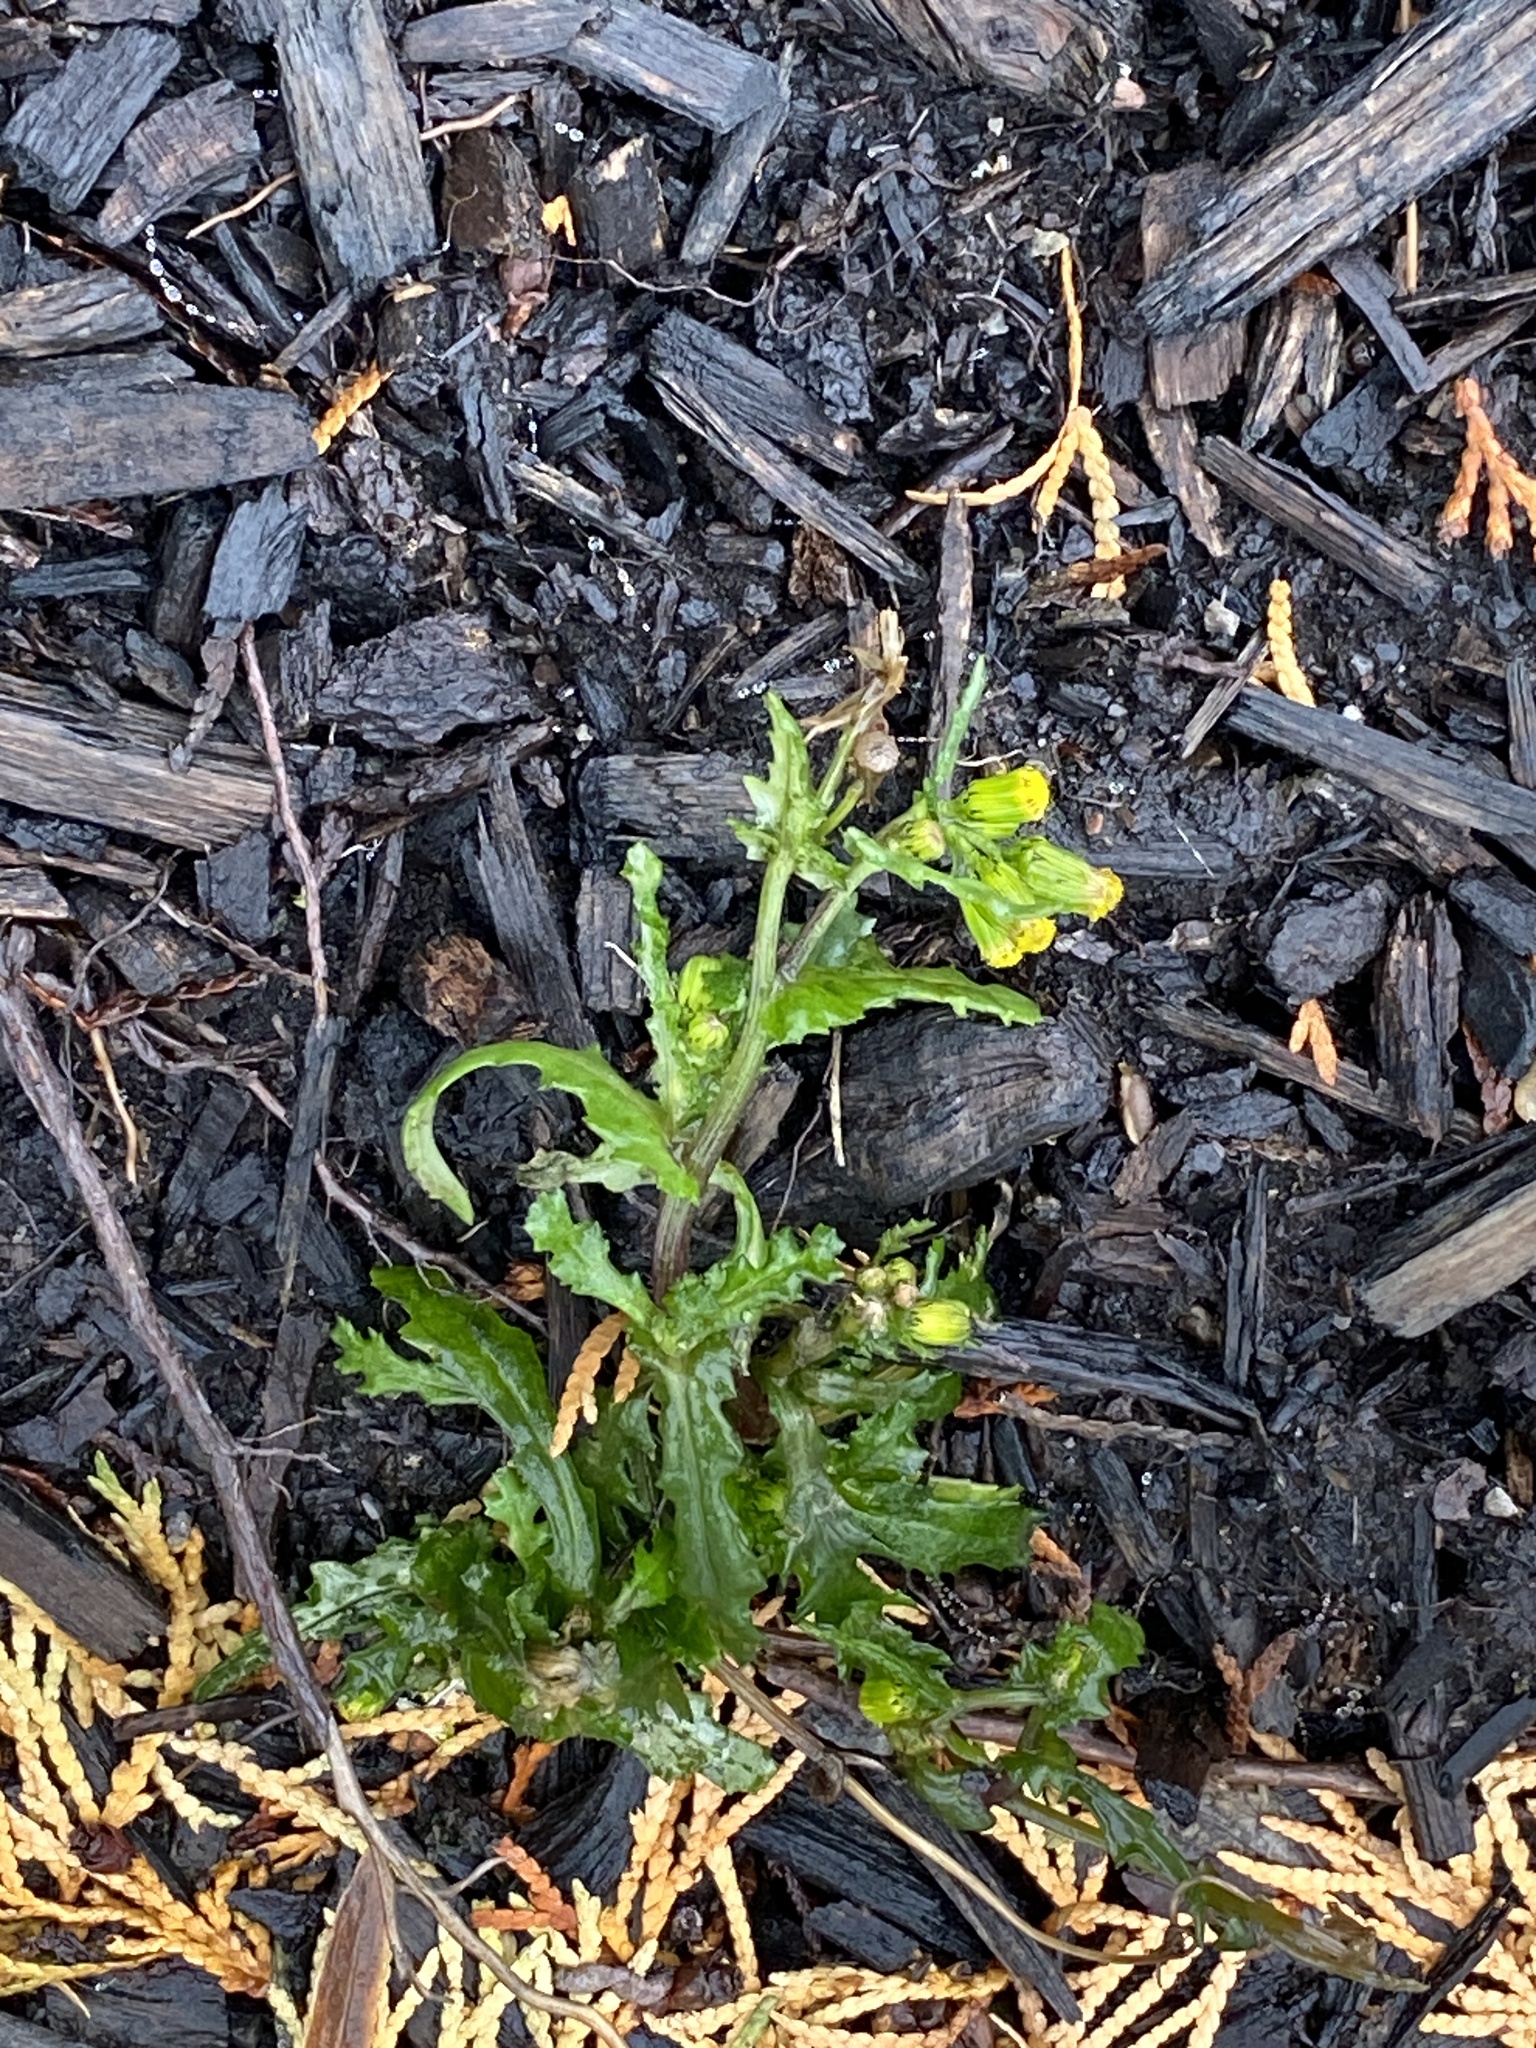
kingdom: Plantae
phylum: Tracheophyta
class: Magnoliopsida
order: Asterales
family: Asteraceae
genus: Senecio
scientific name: Senecio vulgaris
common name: Old-man-in-the-spring
